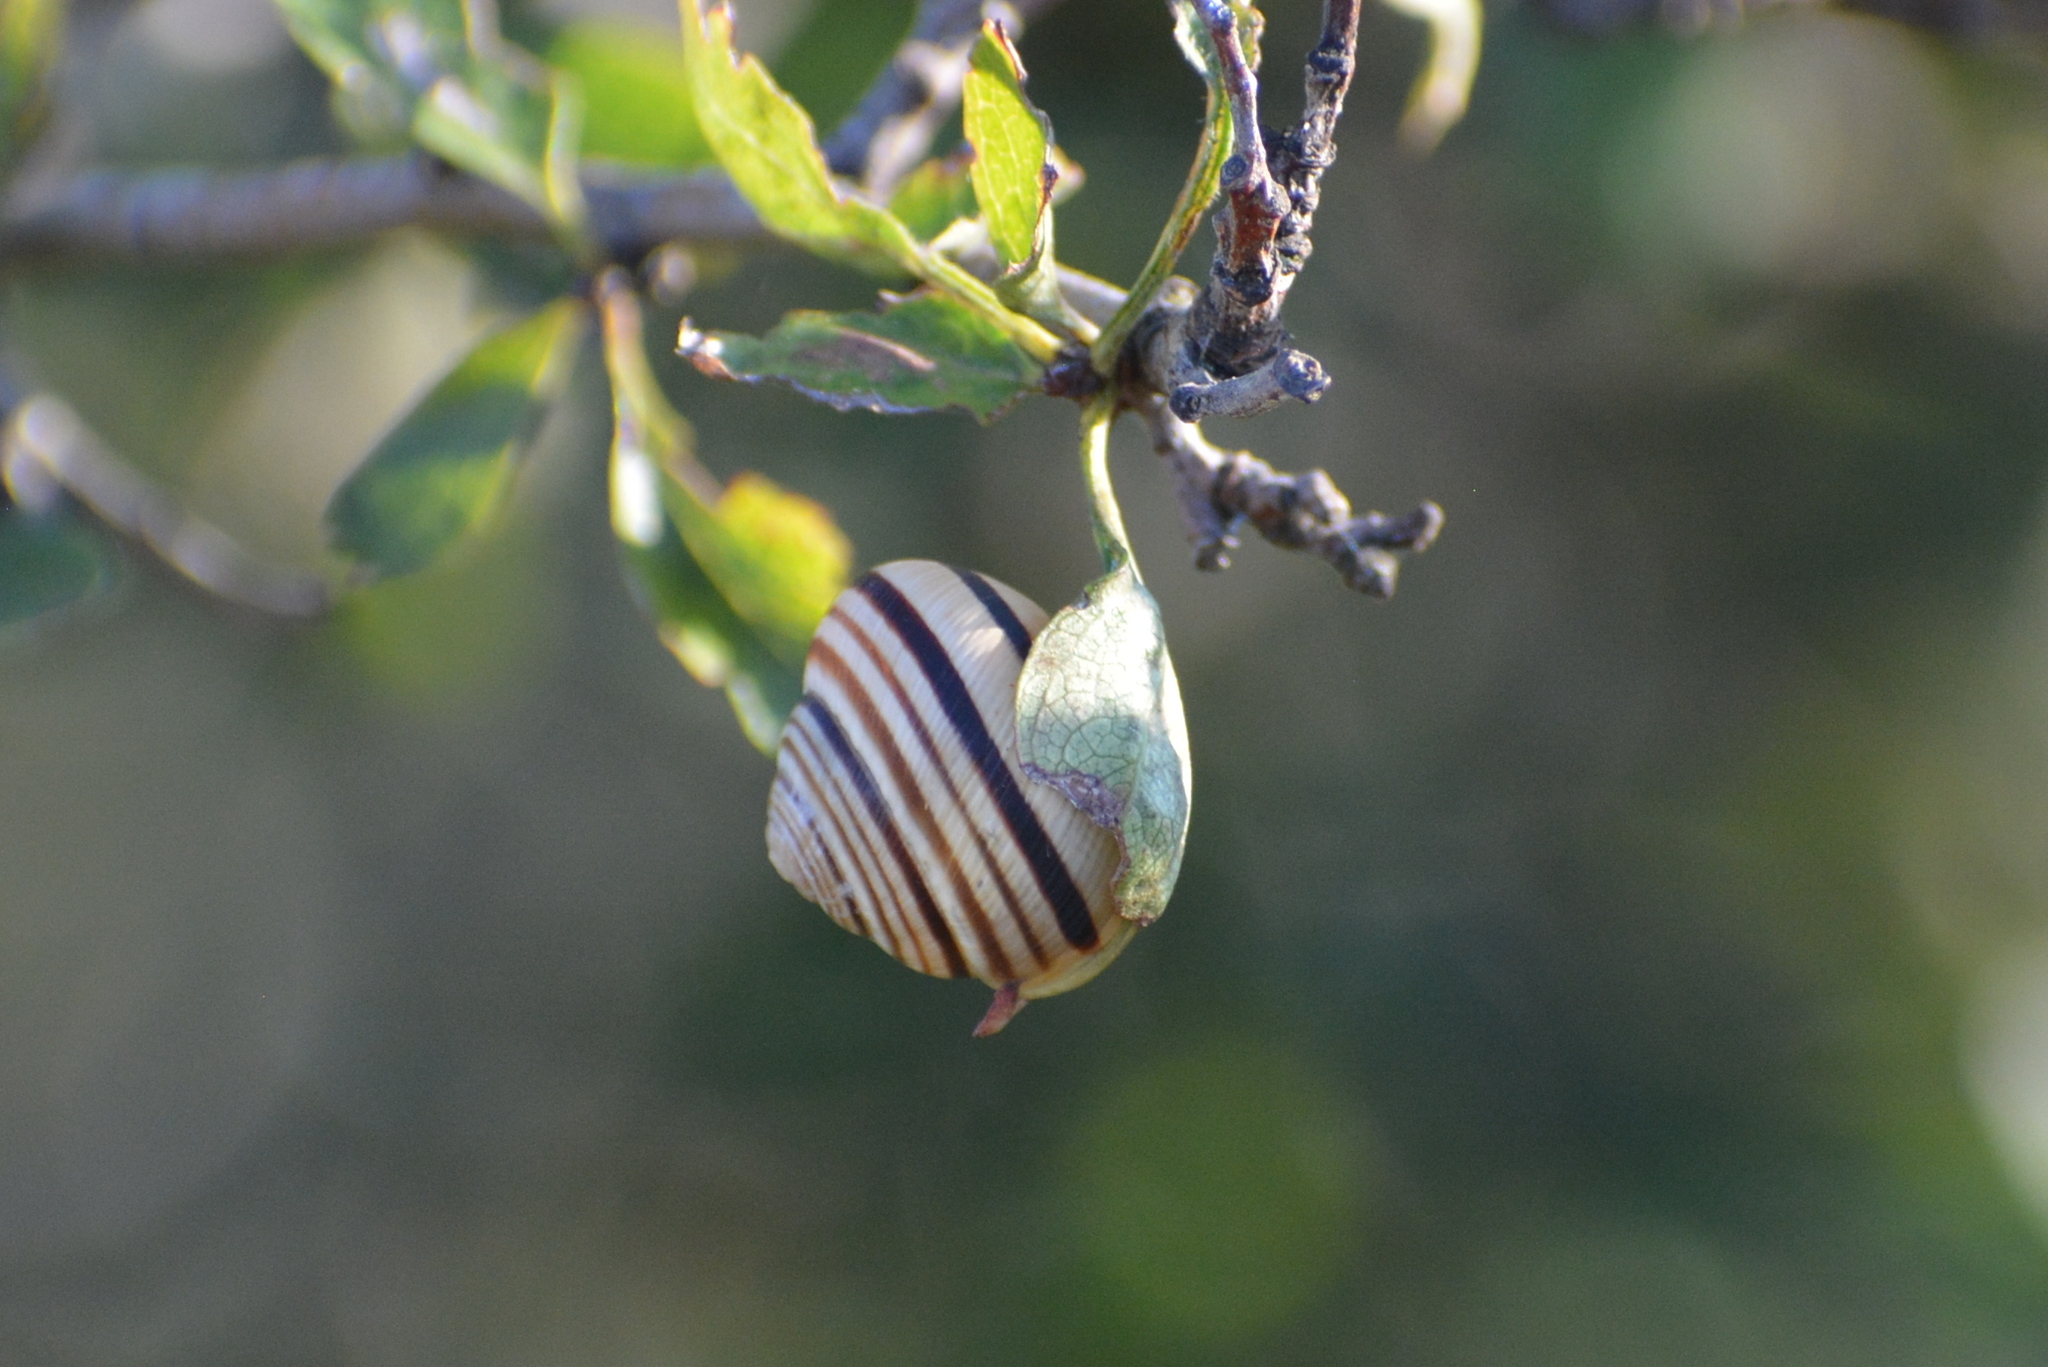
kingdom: Animalia
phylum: Mollusca
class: Gastropoda
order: Stylommatophora
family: Helicidae
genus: Caucasotachea
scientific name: Caucasotachea vindobonensis
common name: European helicid land snail
